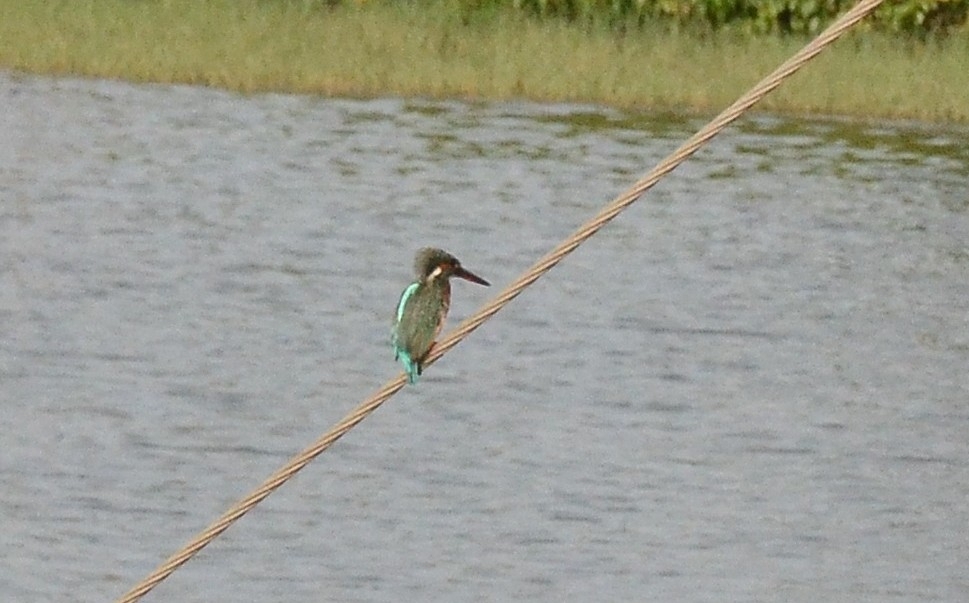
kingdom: Animalia
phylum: Chordata
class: Aves
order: Coraciiformes
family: Alcedinidae
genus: Alcedo
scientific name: Alcedo atthis
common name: Common kingfisher
